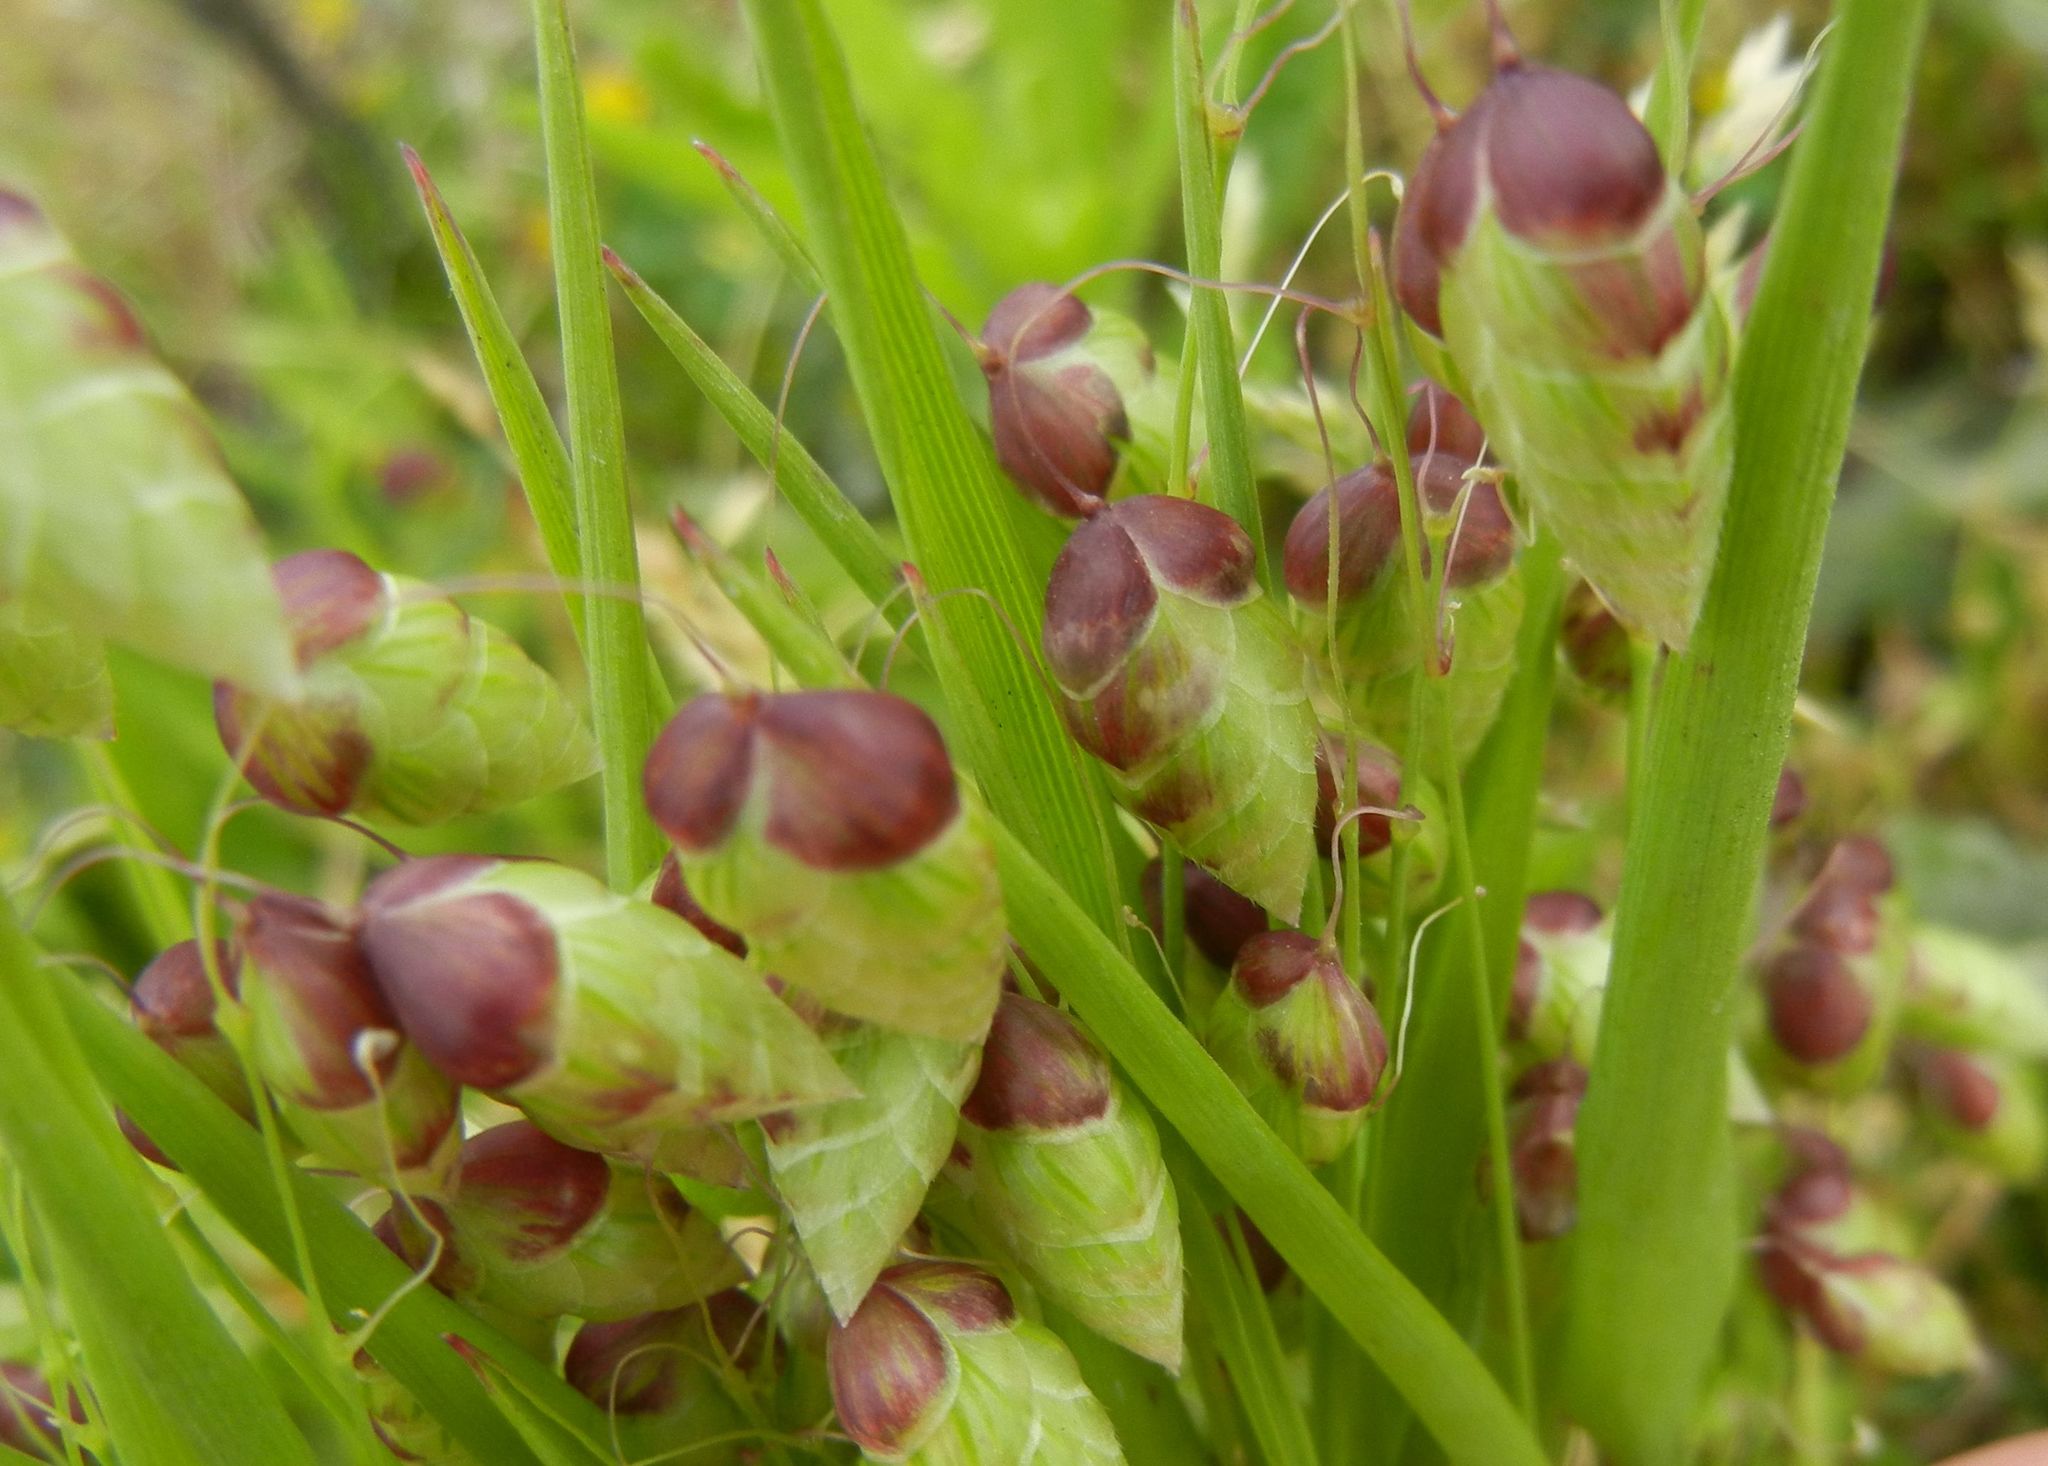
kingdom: Plantae
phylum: Tracheophyta
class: Liliopsida
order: Poales
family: Poaceae
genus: Briza
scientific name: Briza maxima
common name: Big quakinggrass
